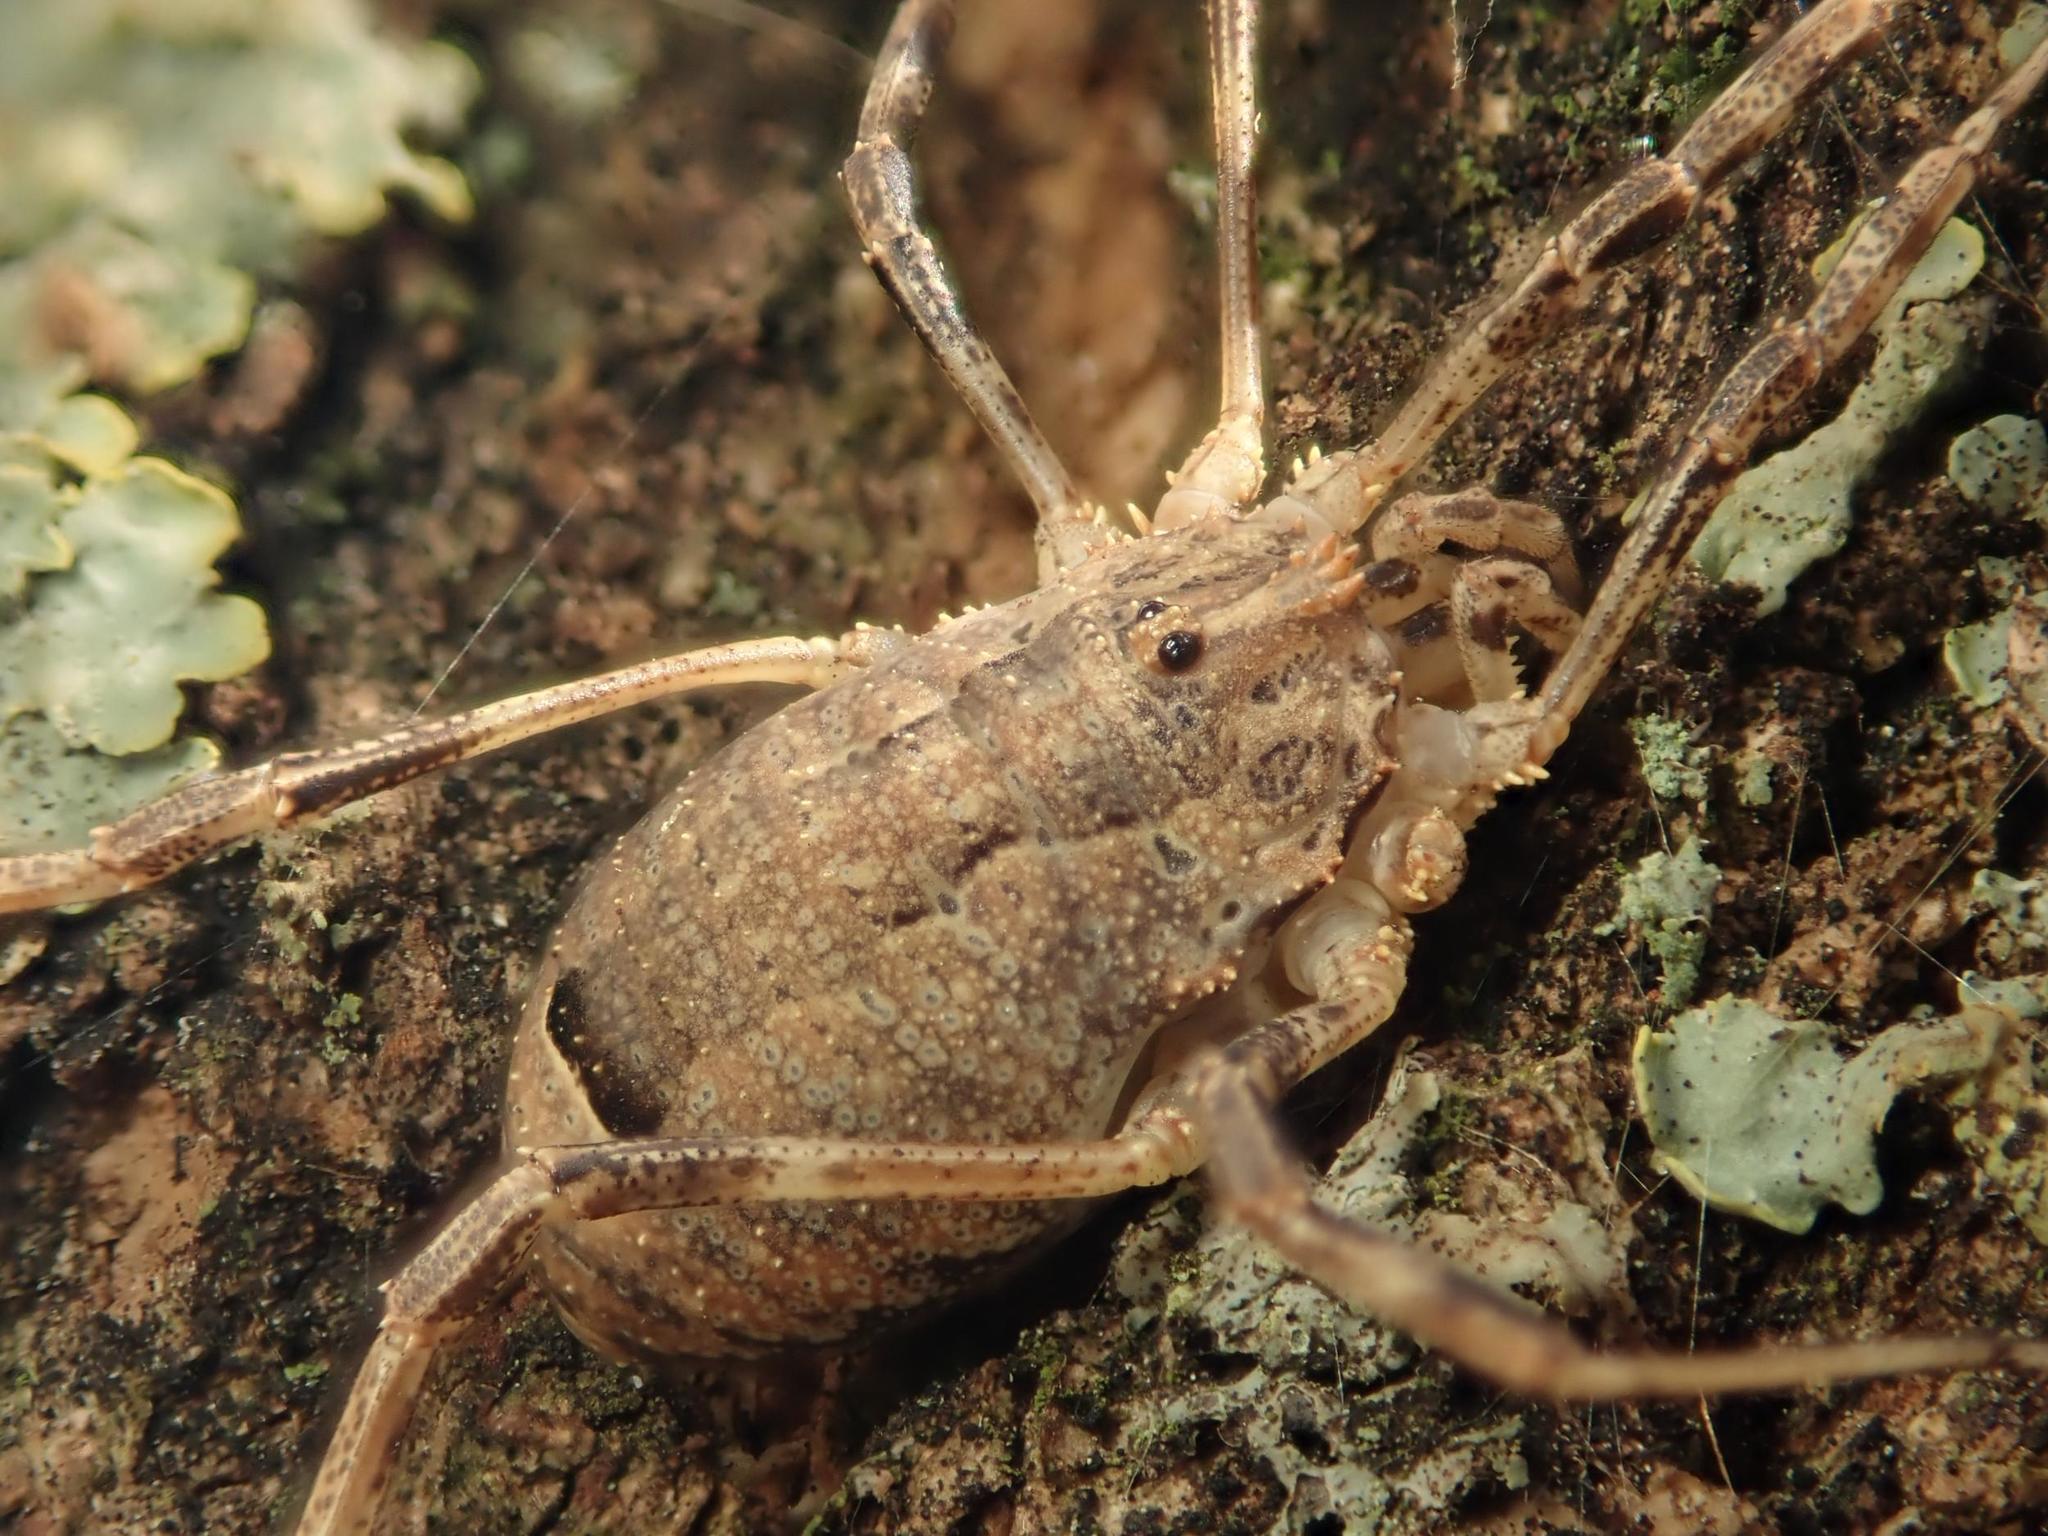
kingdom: Animalia
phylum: Arthropoda
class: Arachnida
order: Opiliones
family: Phalangiidae
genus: Odiellus
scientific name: Odiellus spinosus
